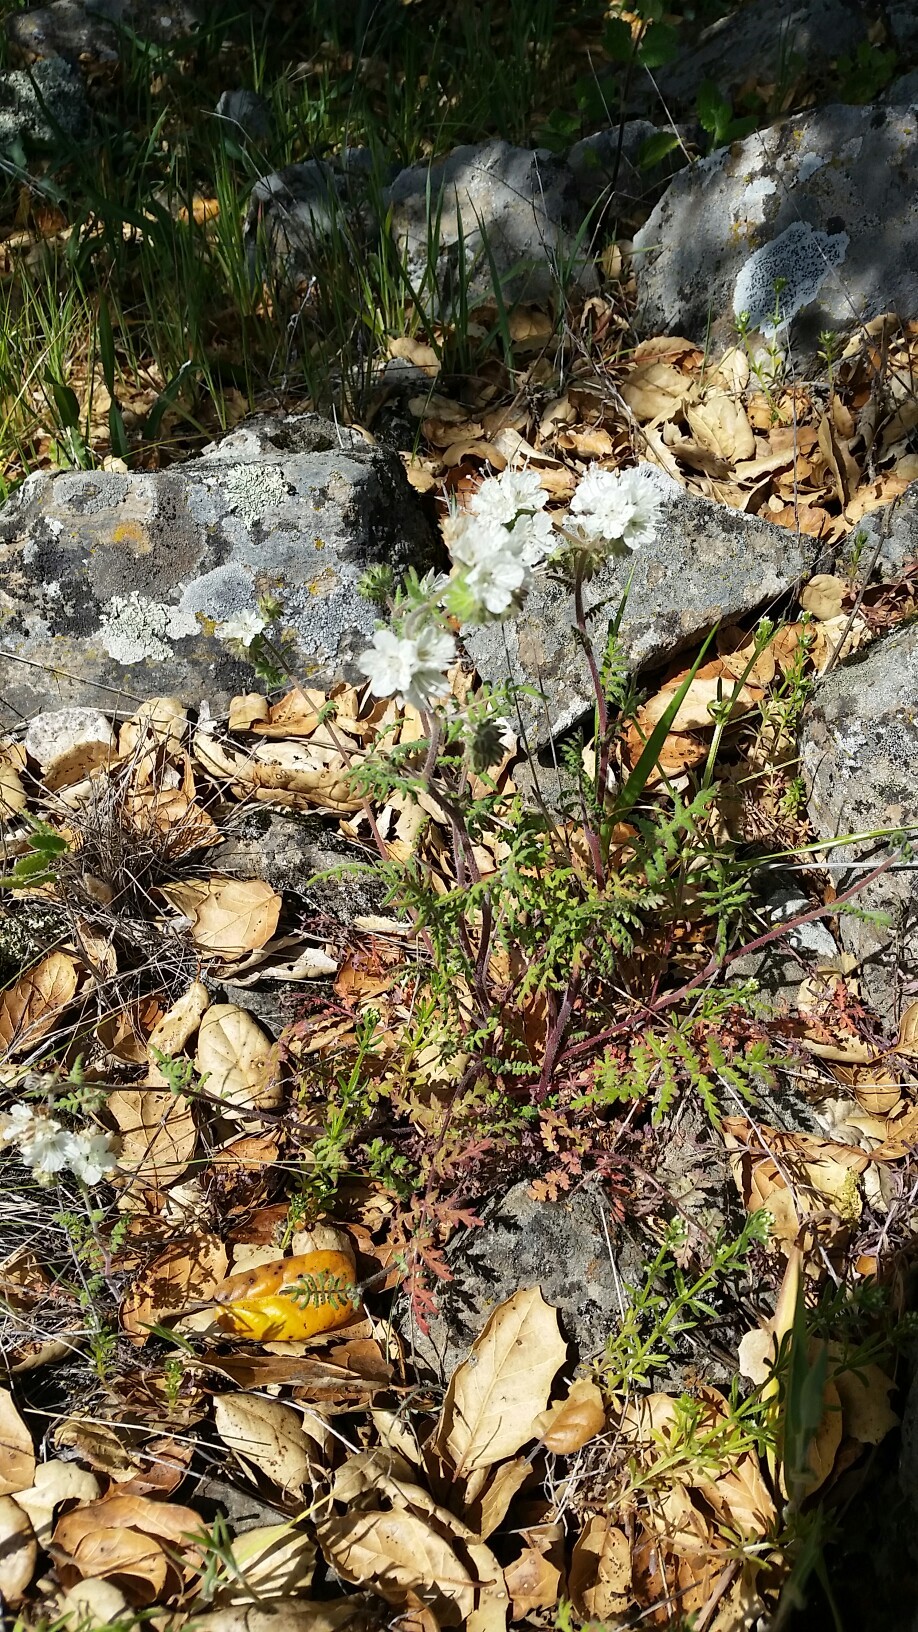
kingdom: Plantae
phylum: Tracheophyta
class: Magnoliopsida
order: Boraginales
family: Hydrophyllaceae
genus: Phacelia
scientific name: Phacelia distans
